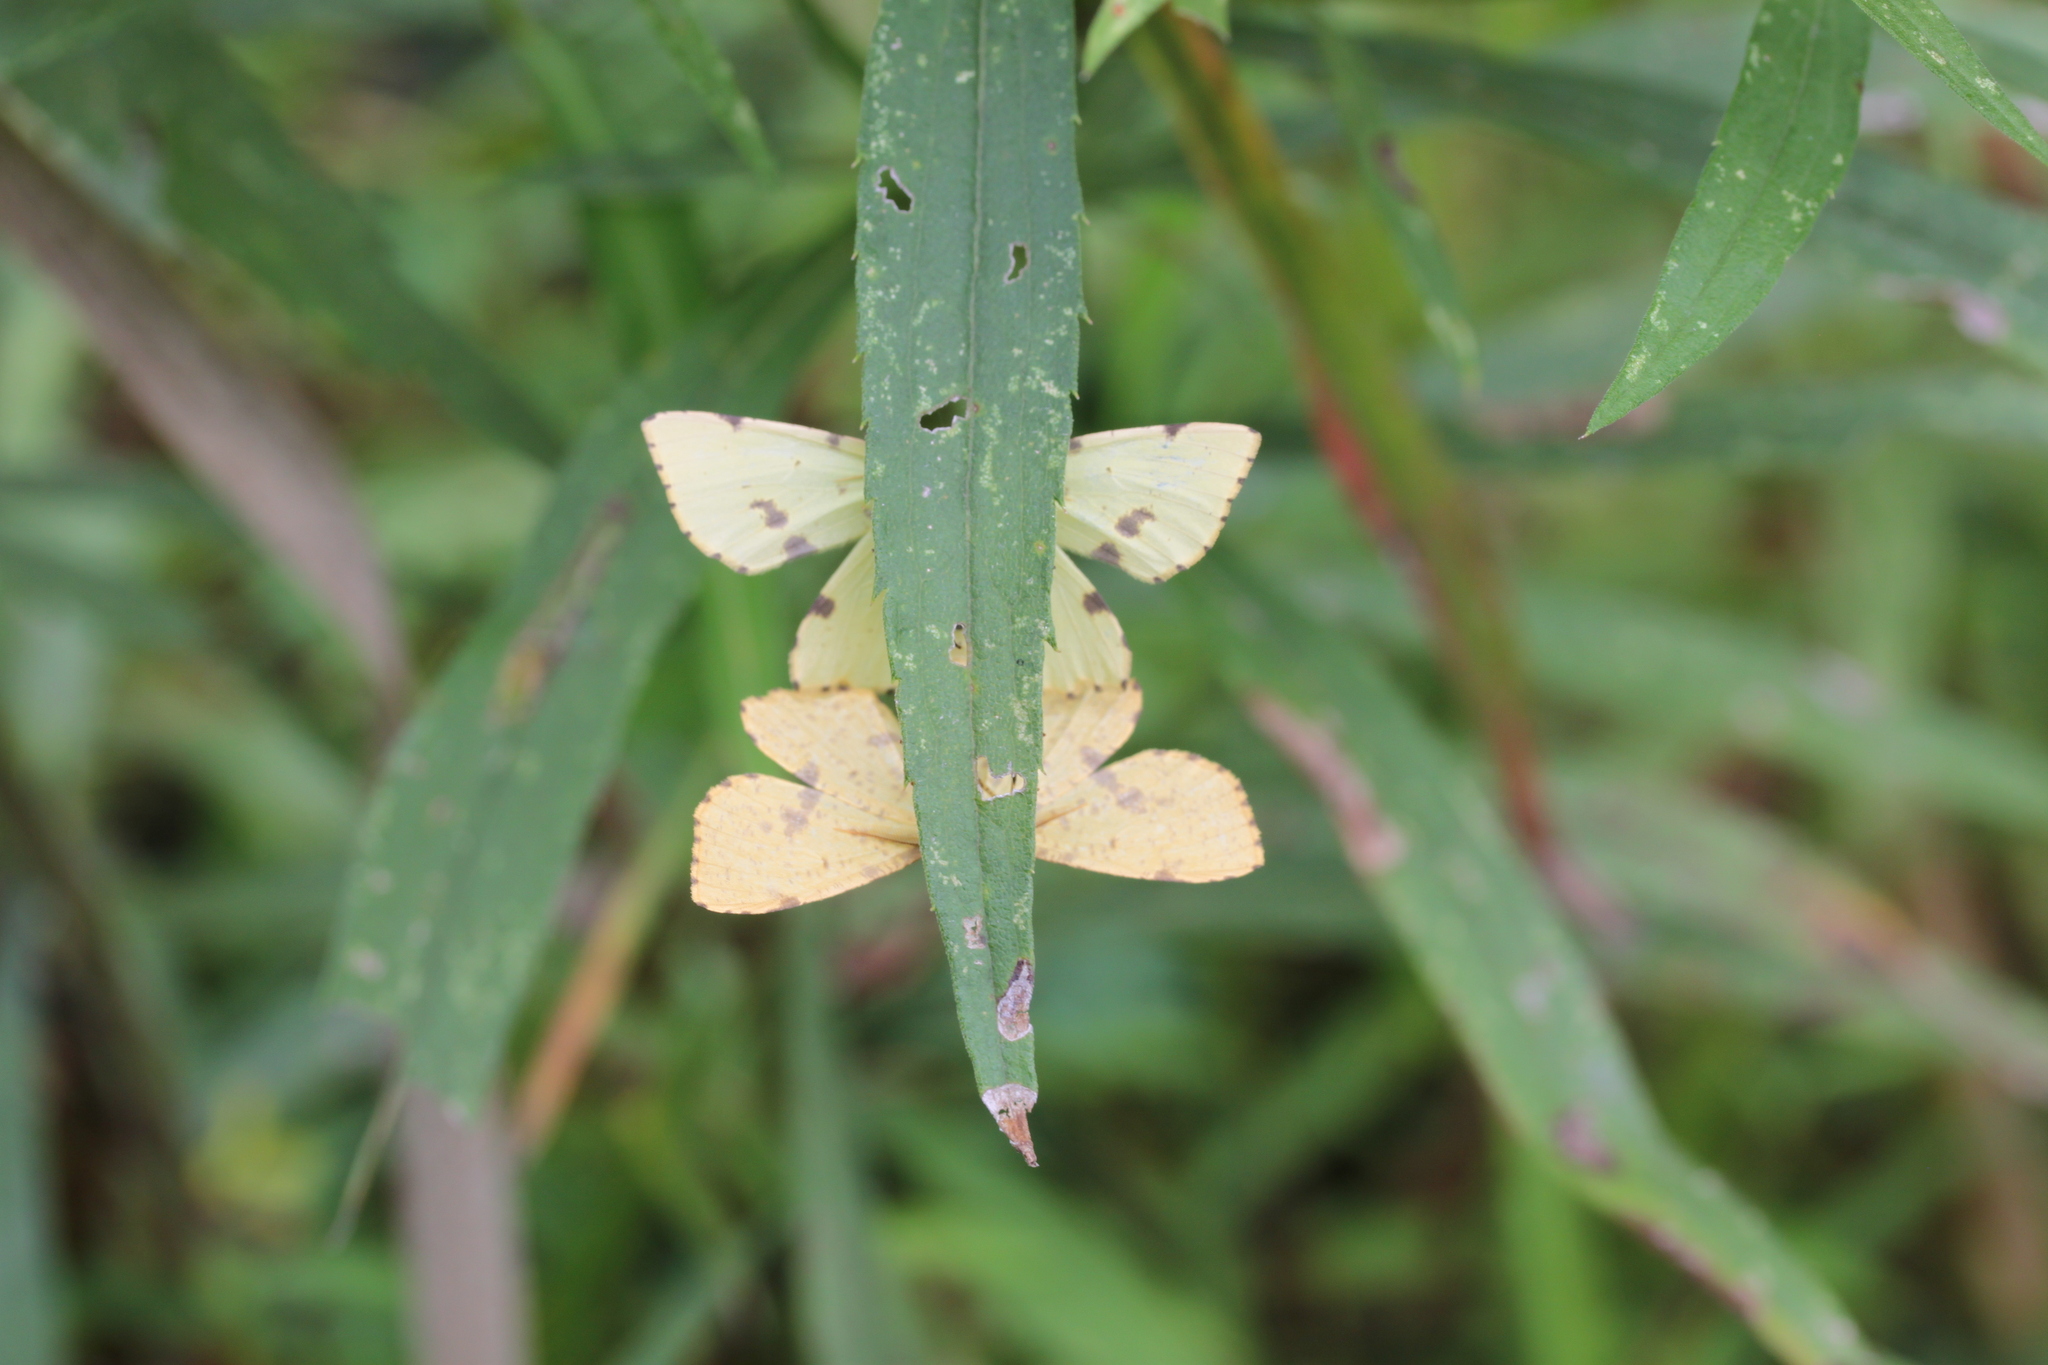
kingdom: Animalia
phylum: Arthropoda
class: Insecta
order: Lepidoptera
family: Geometridae
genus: Xanthotype
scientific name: Xanthotype
